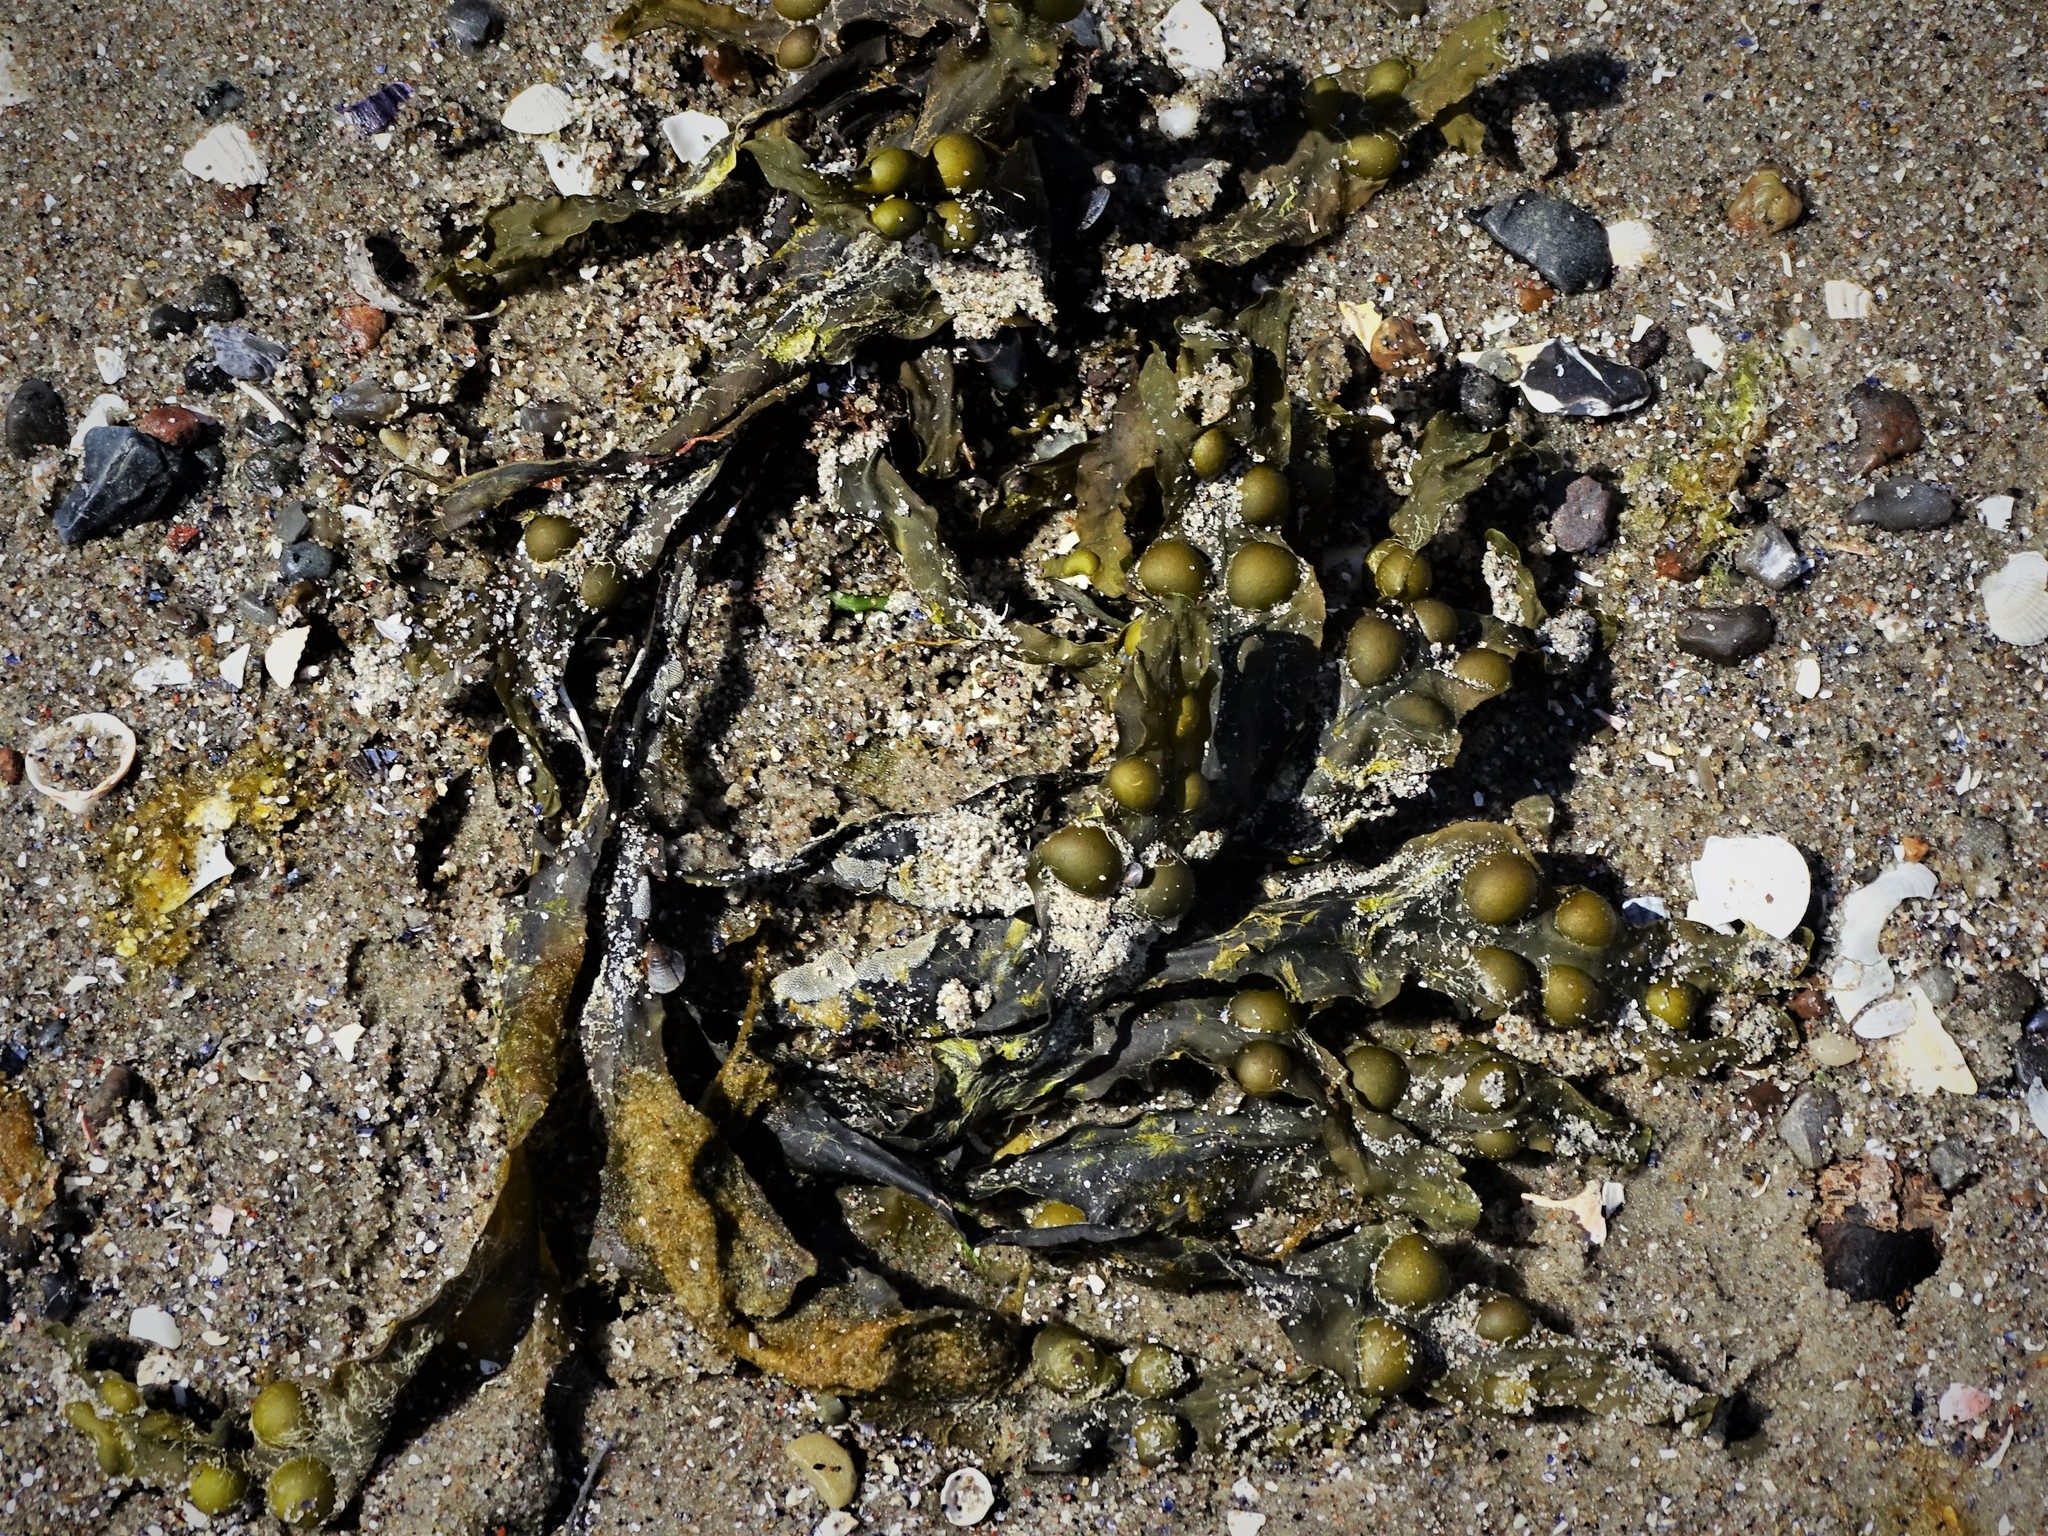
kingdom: Chromista
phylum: Ochrophyta
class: Phaeophyceae
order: Fucales
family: Fucaceae
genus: Fucus
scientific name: Fucus vesiculosus
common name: Bladder wrack
